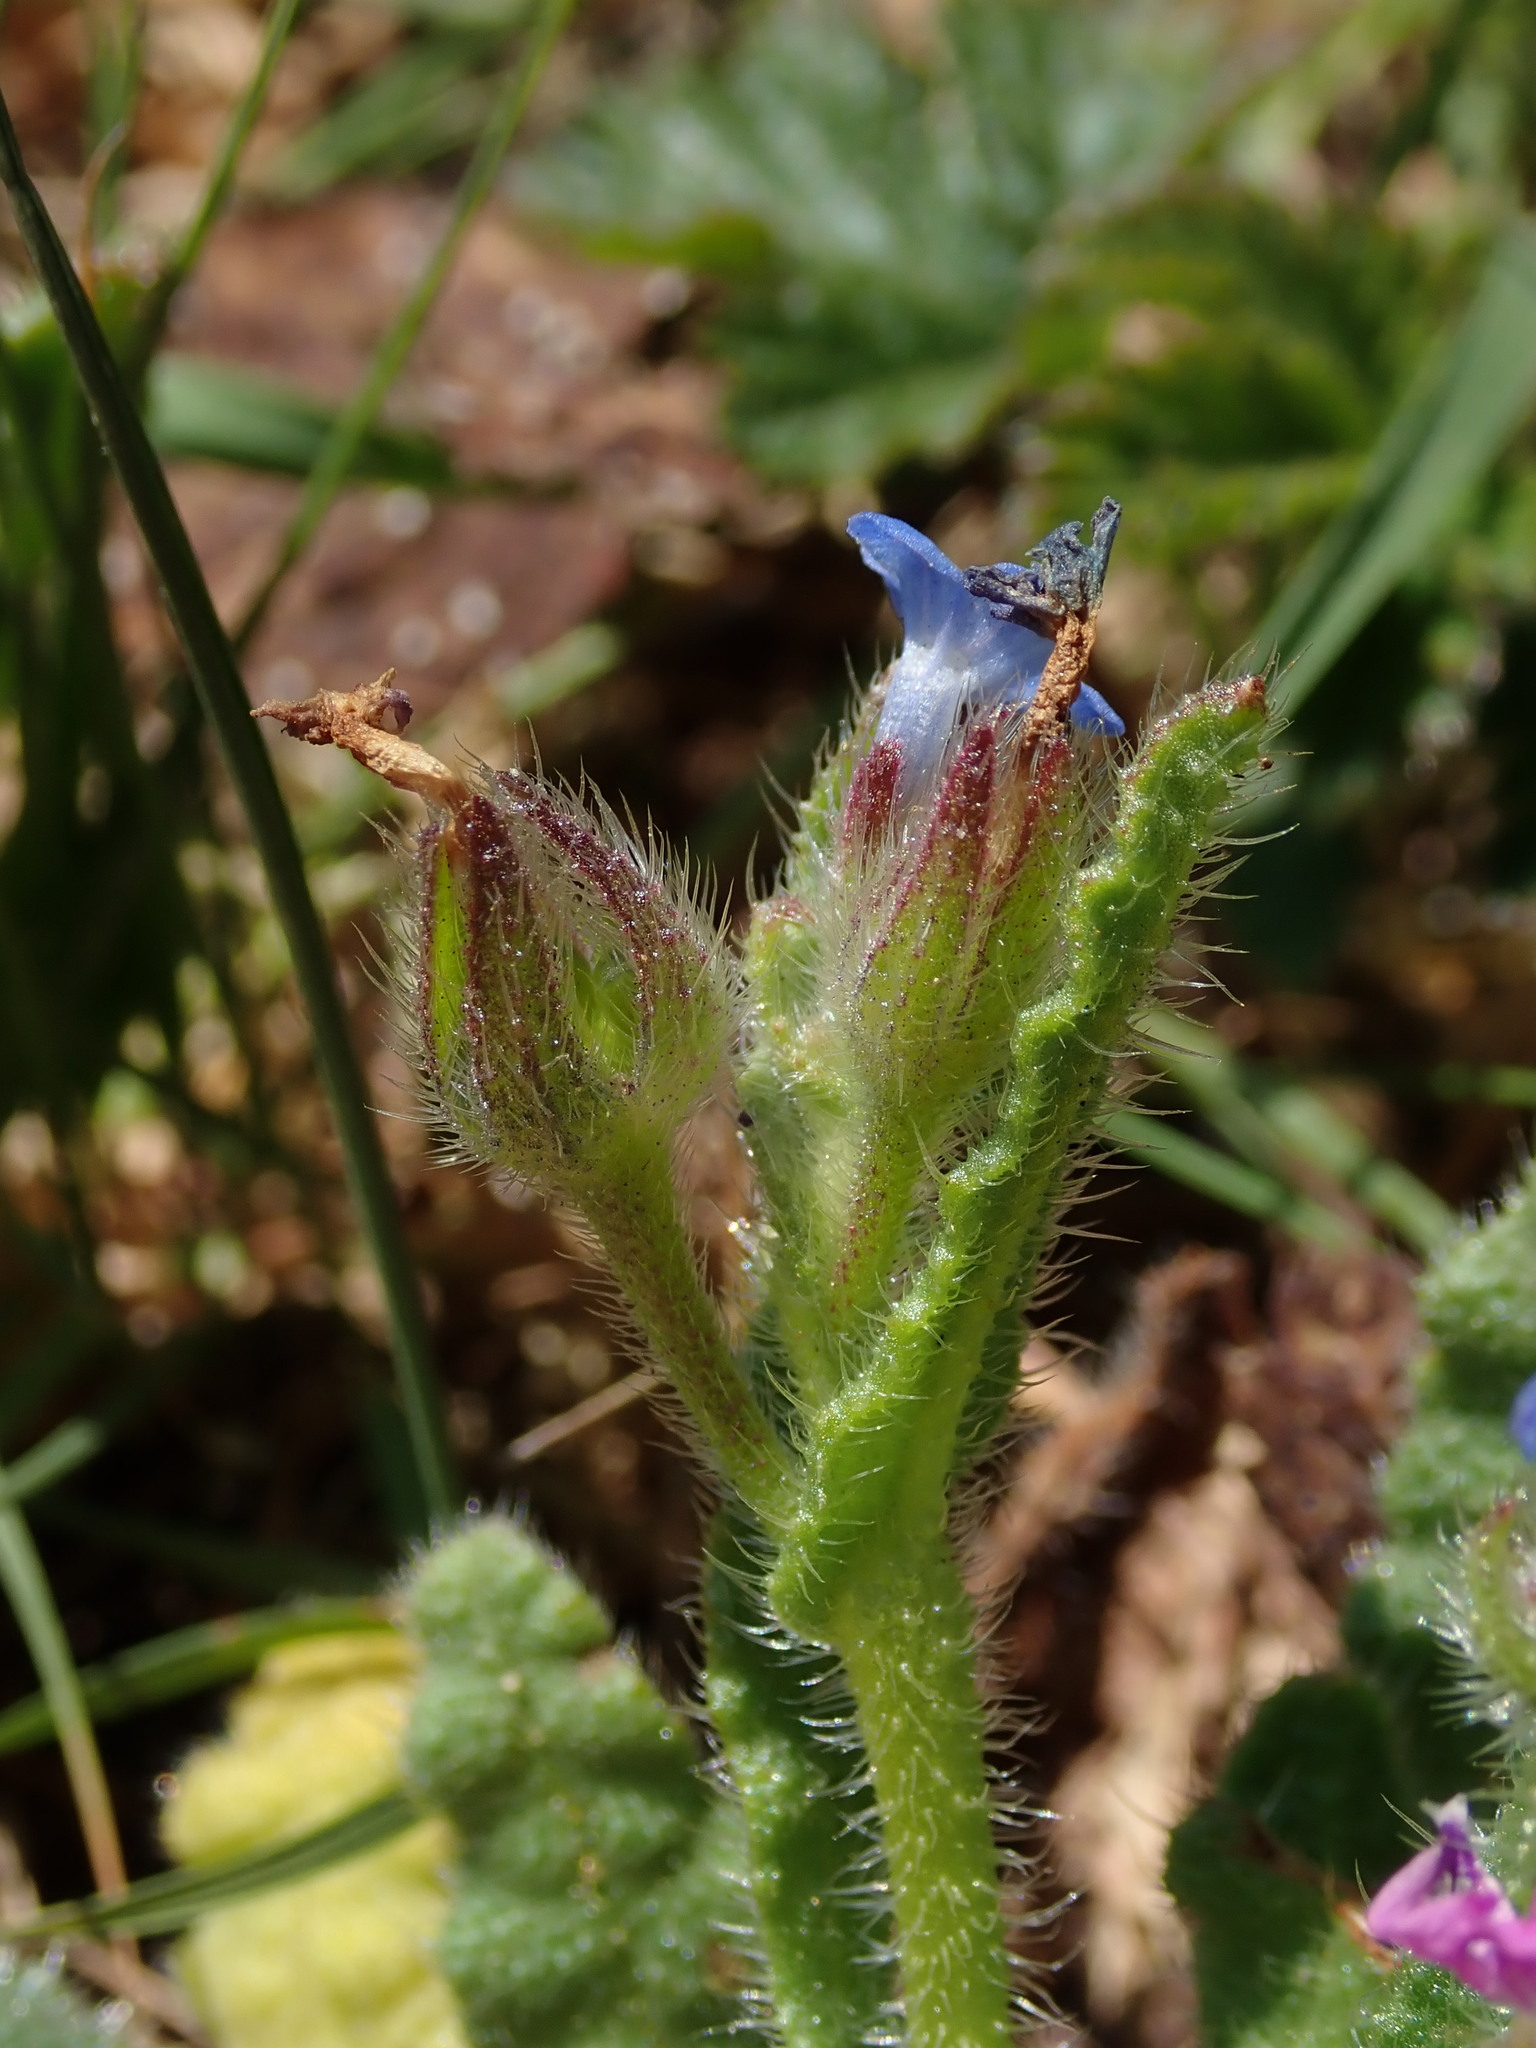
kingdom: Plantae
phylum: Tracheophyta
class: Magnoliopsida
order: Boraginales
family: Boraginaceae
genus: Lycopsis
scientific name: Lycopsis arvensis
